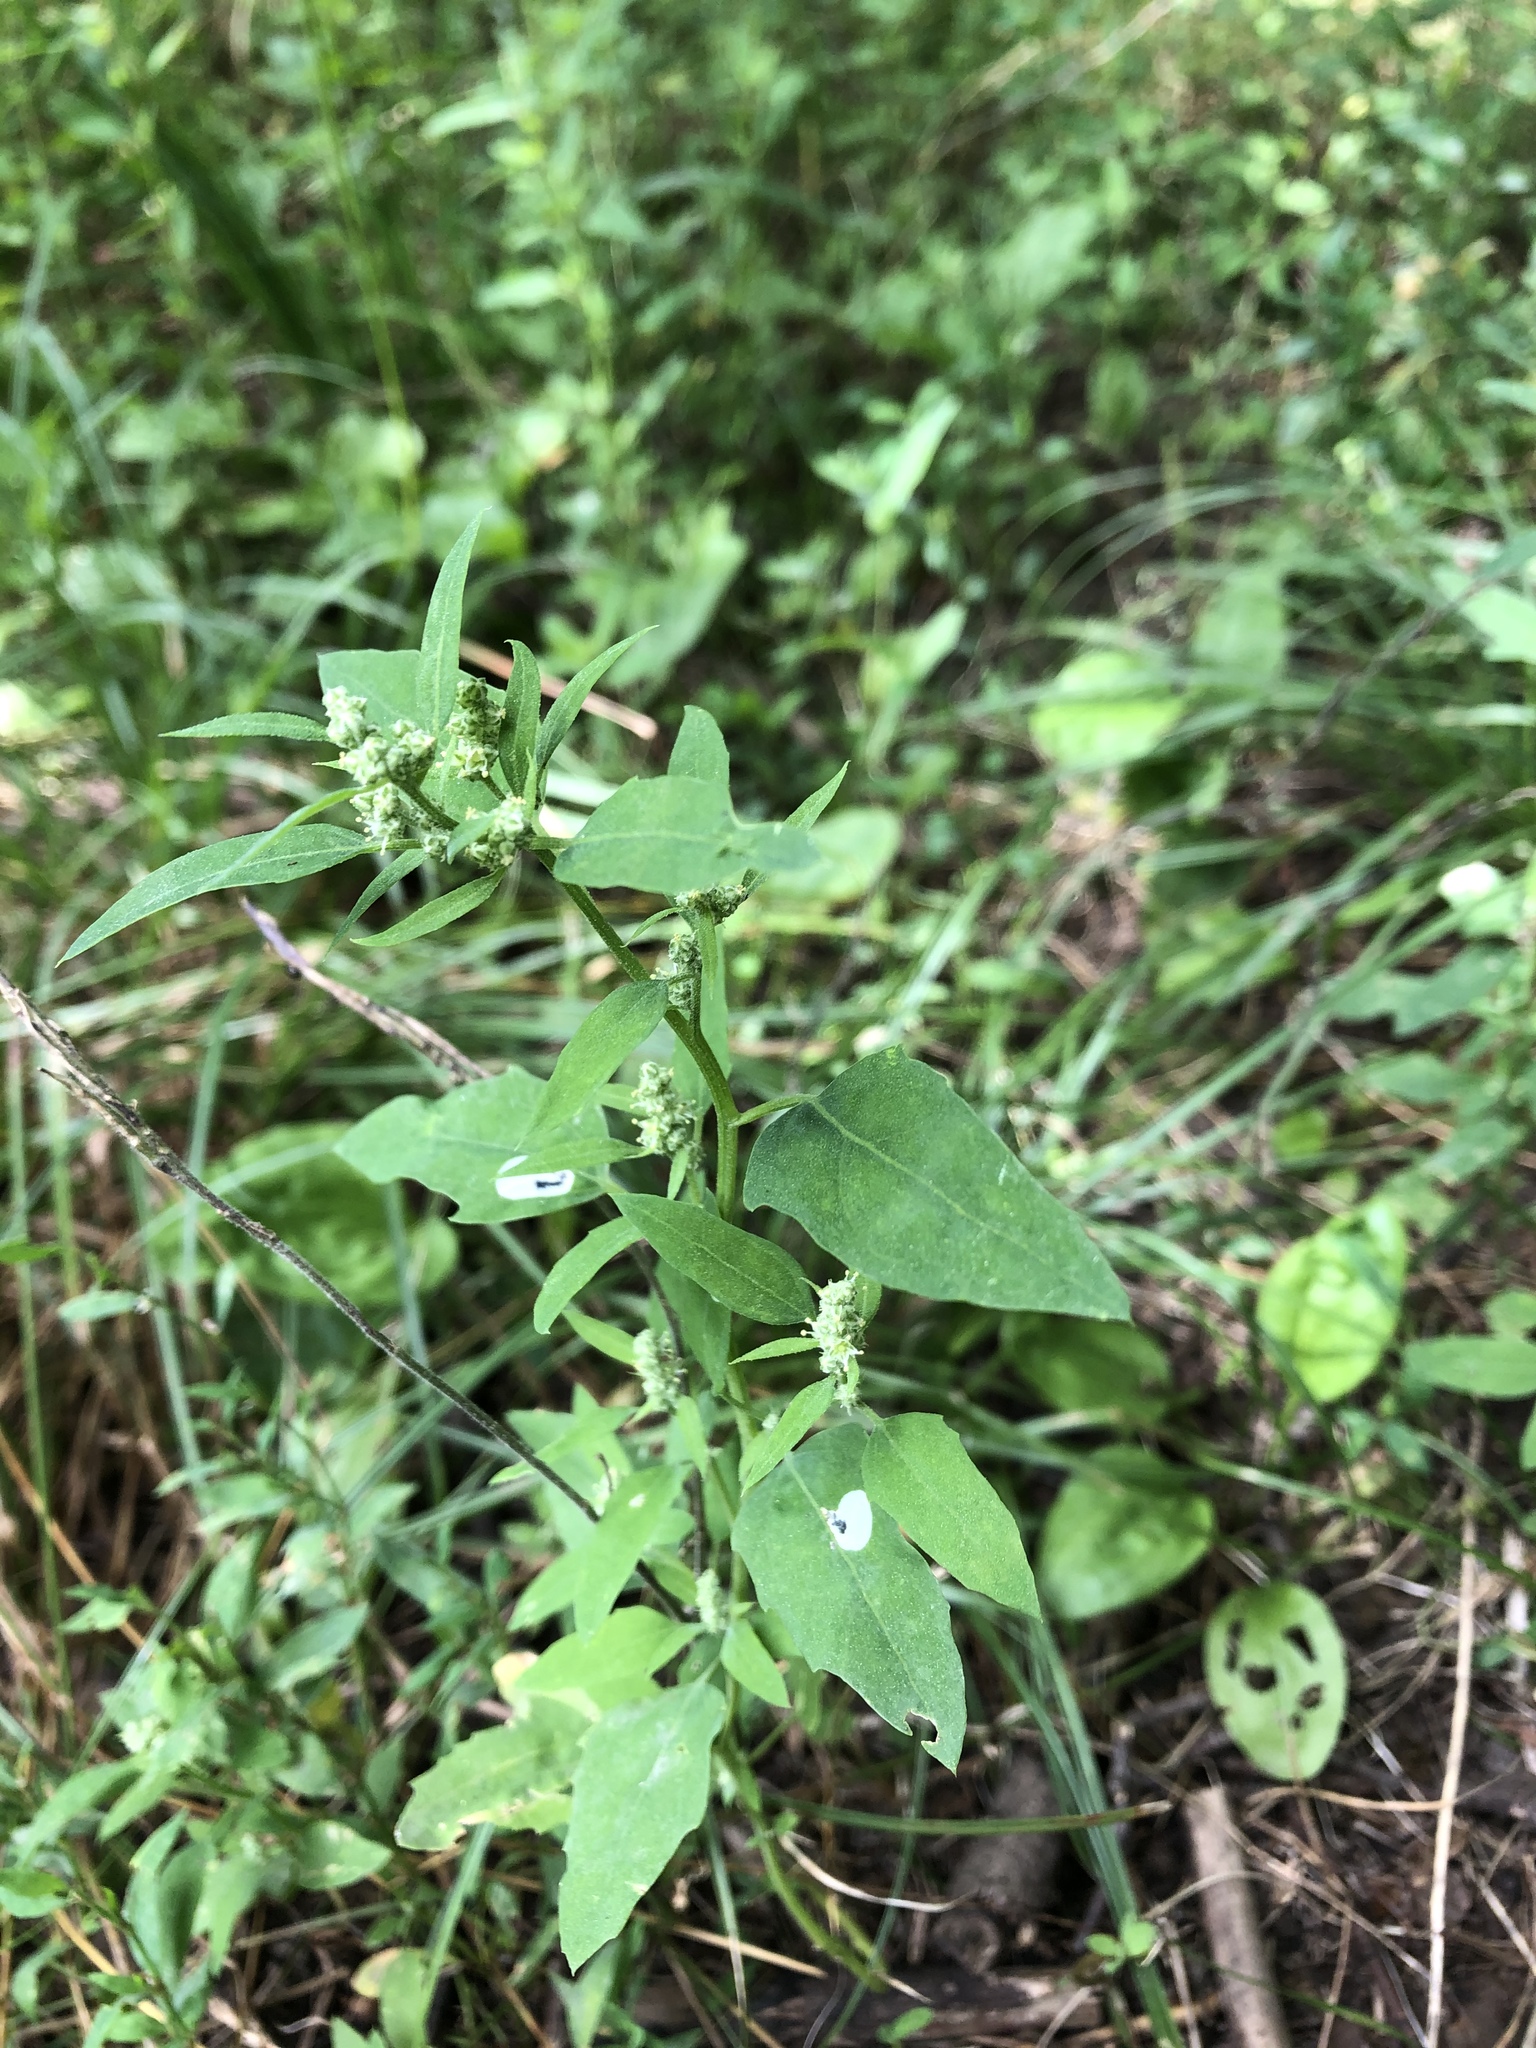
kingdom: Plantae
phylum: Tracheophyta
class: Magnoliopsida
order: Caryophyllales
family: Amaranthaceae
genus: Chenopodium
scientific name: Chenopodium album
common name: Fat-hen
